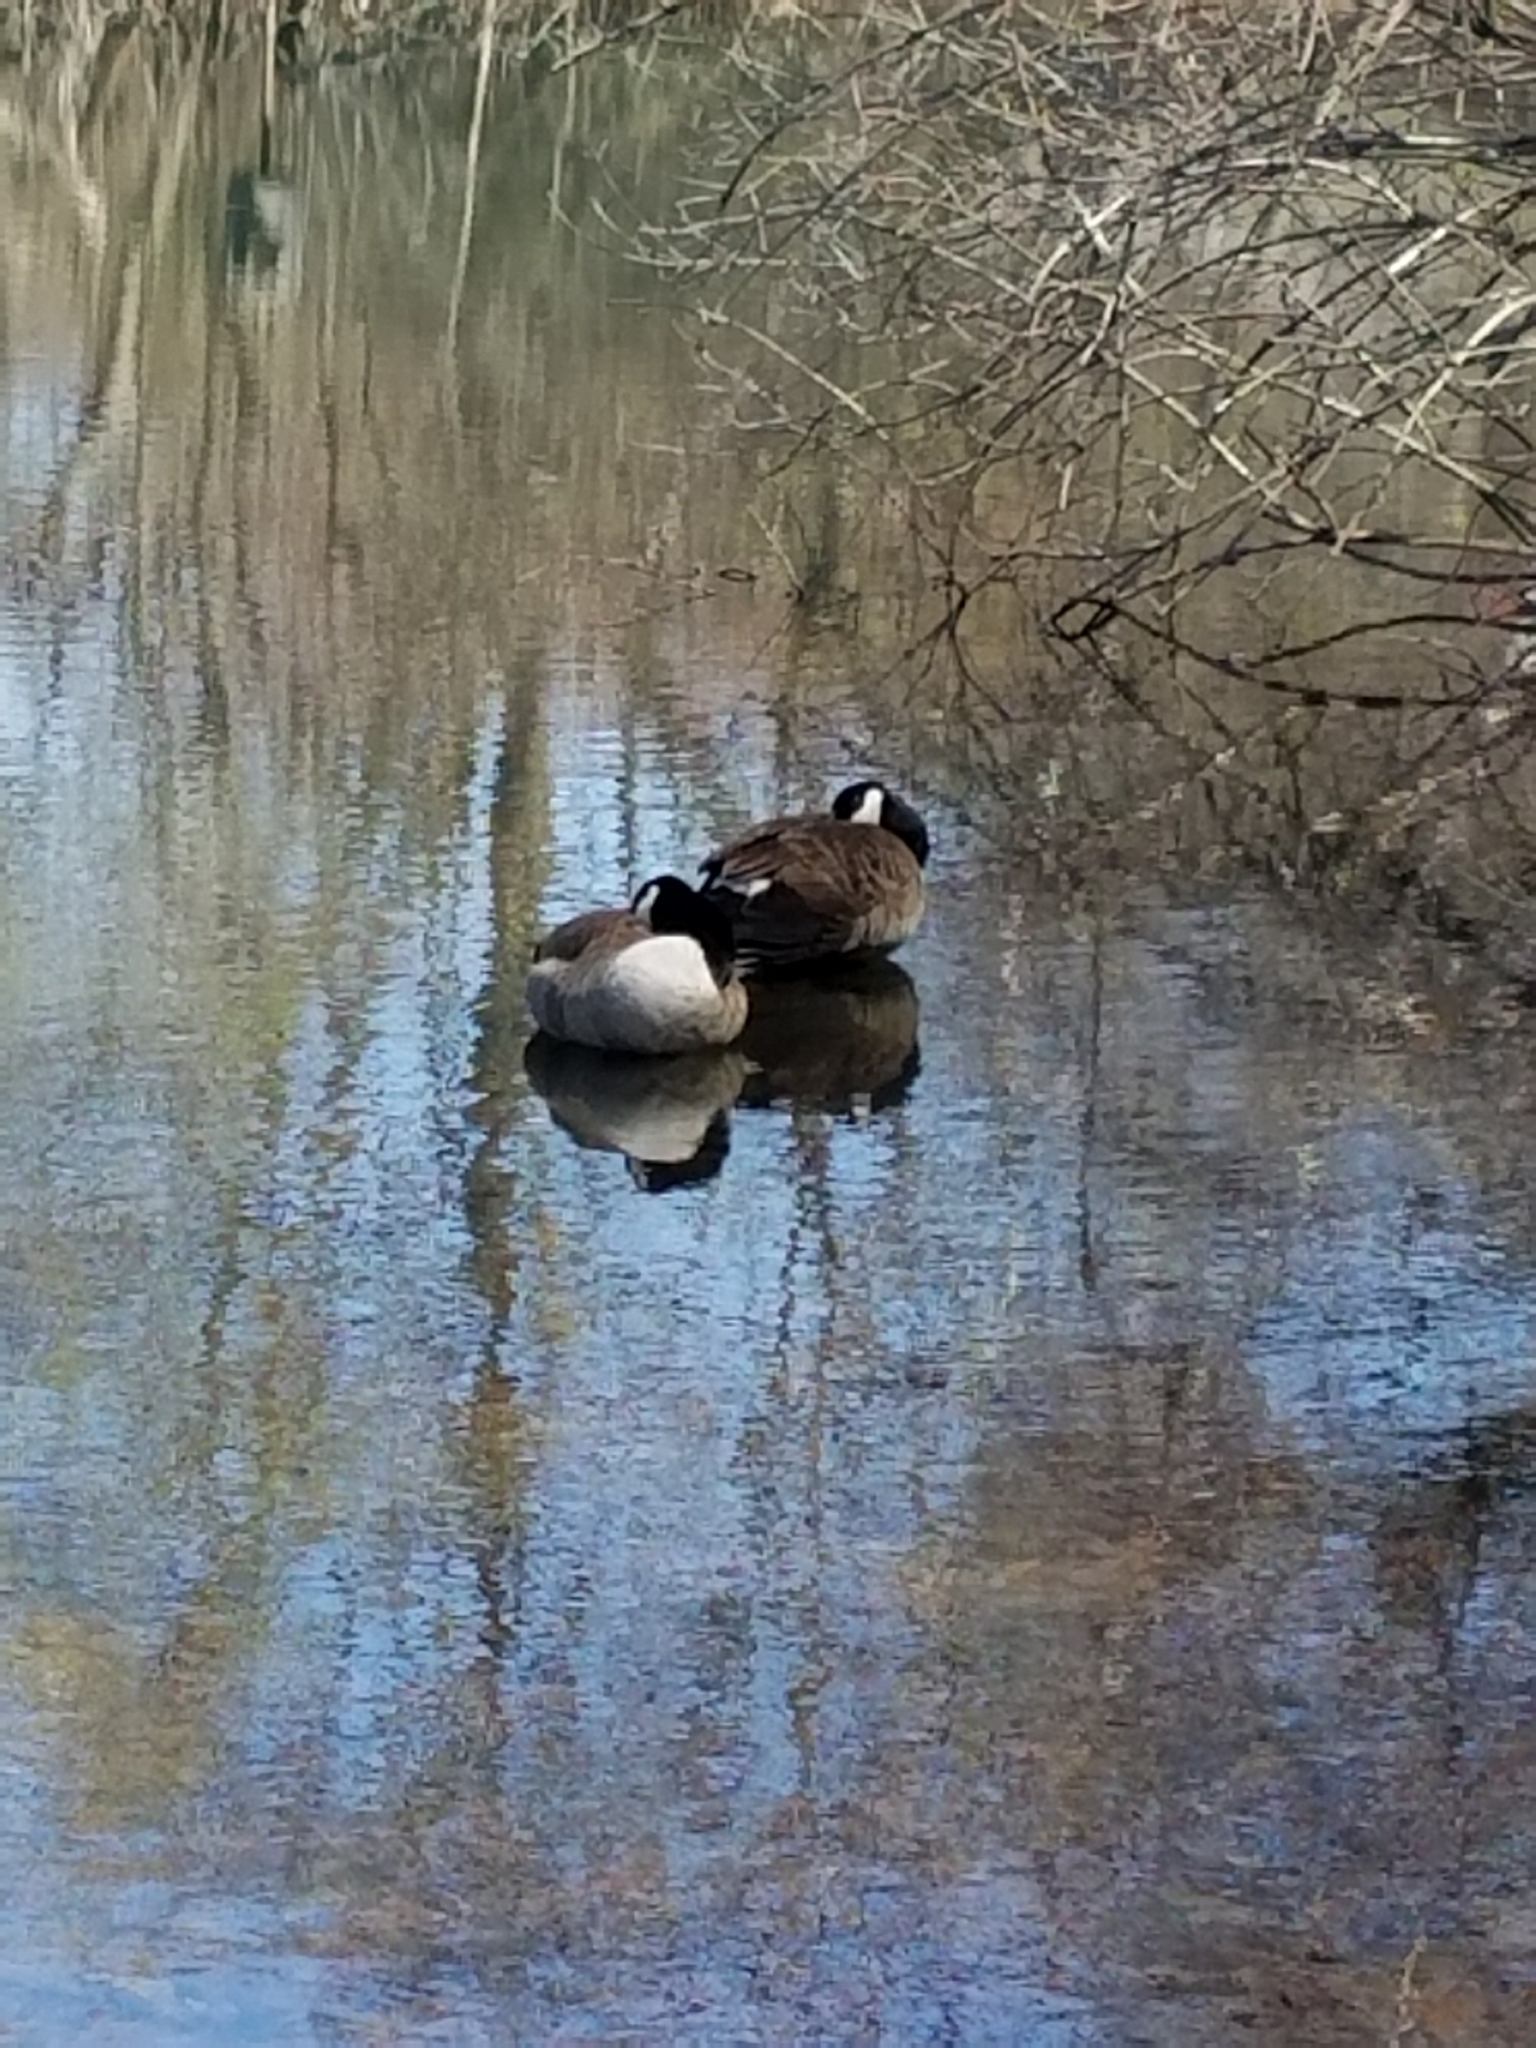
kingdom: Animalia
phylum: Chordata
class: Aves
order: Anseriformes
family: Anatidae
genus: Branta
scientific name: Branta canadensis
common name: Canada goose
